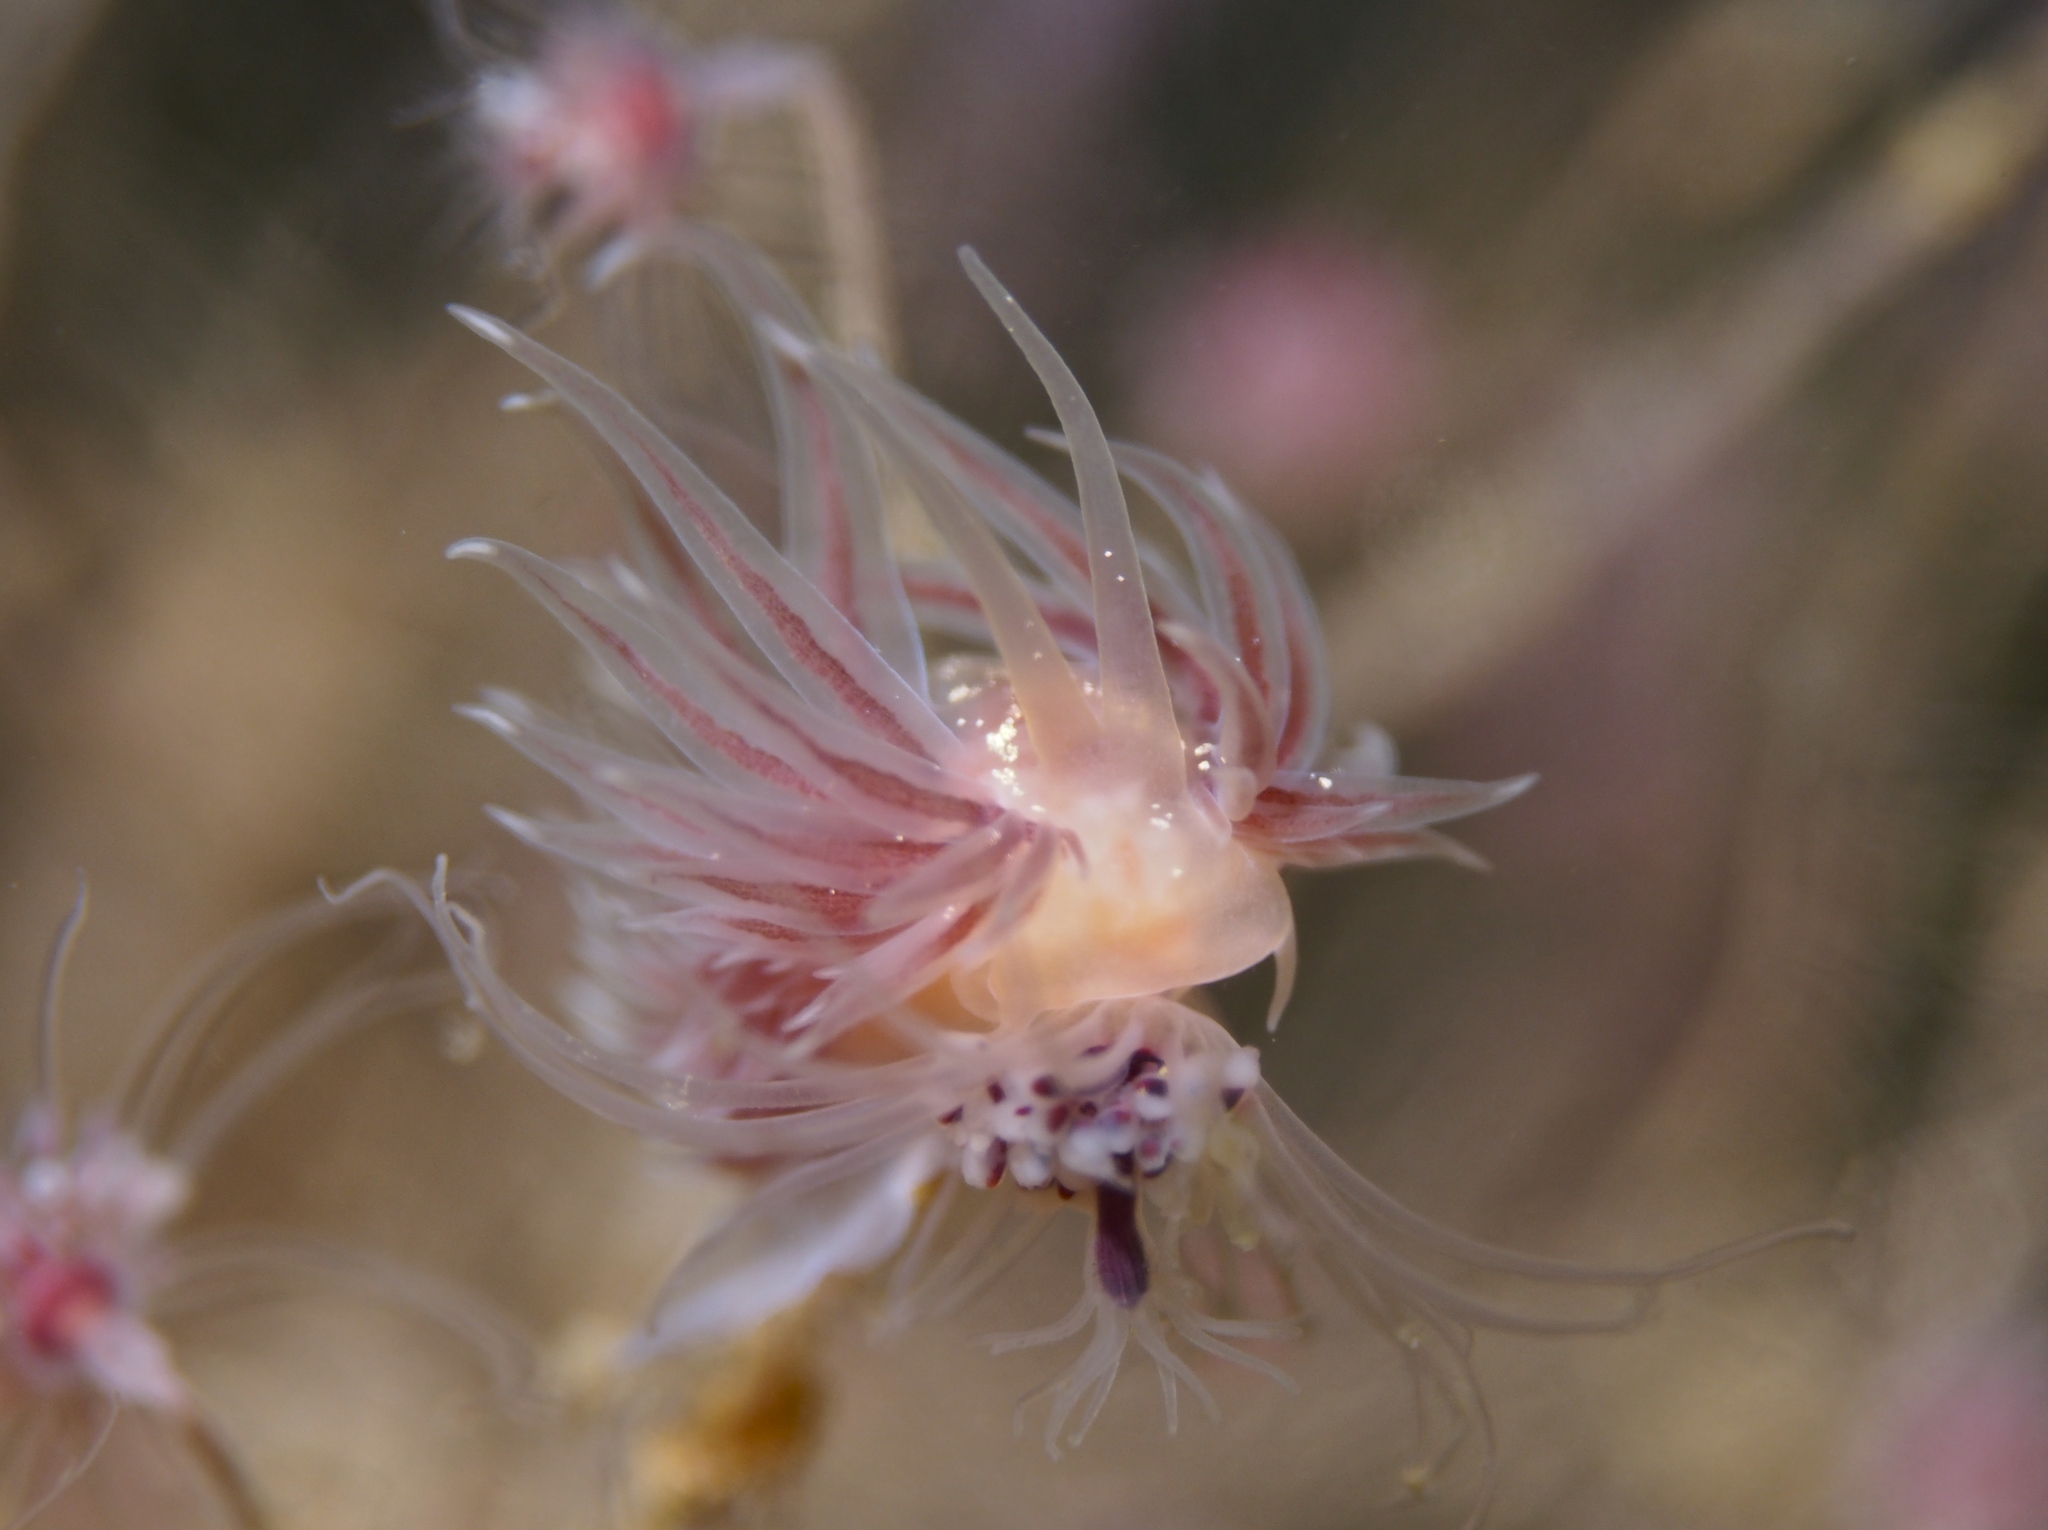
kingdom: Animalia
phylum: Mollusca
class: Gastropoda
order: Nudibranchia
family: Cumanotidae
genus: Cumanotus
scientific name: Cumanotus beaumonti
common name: Polyp aeolis
